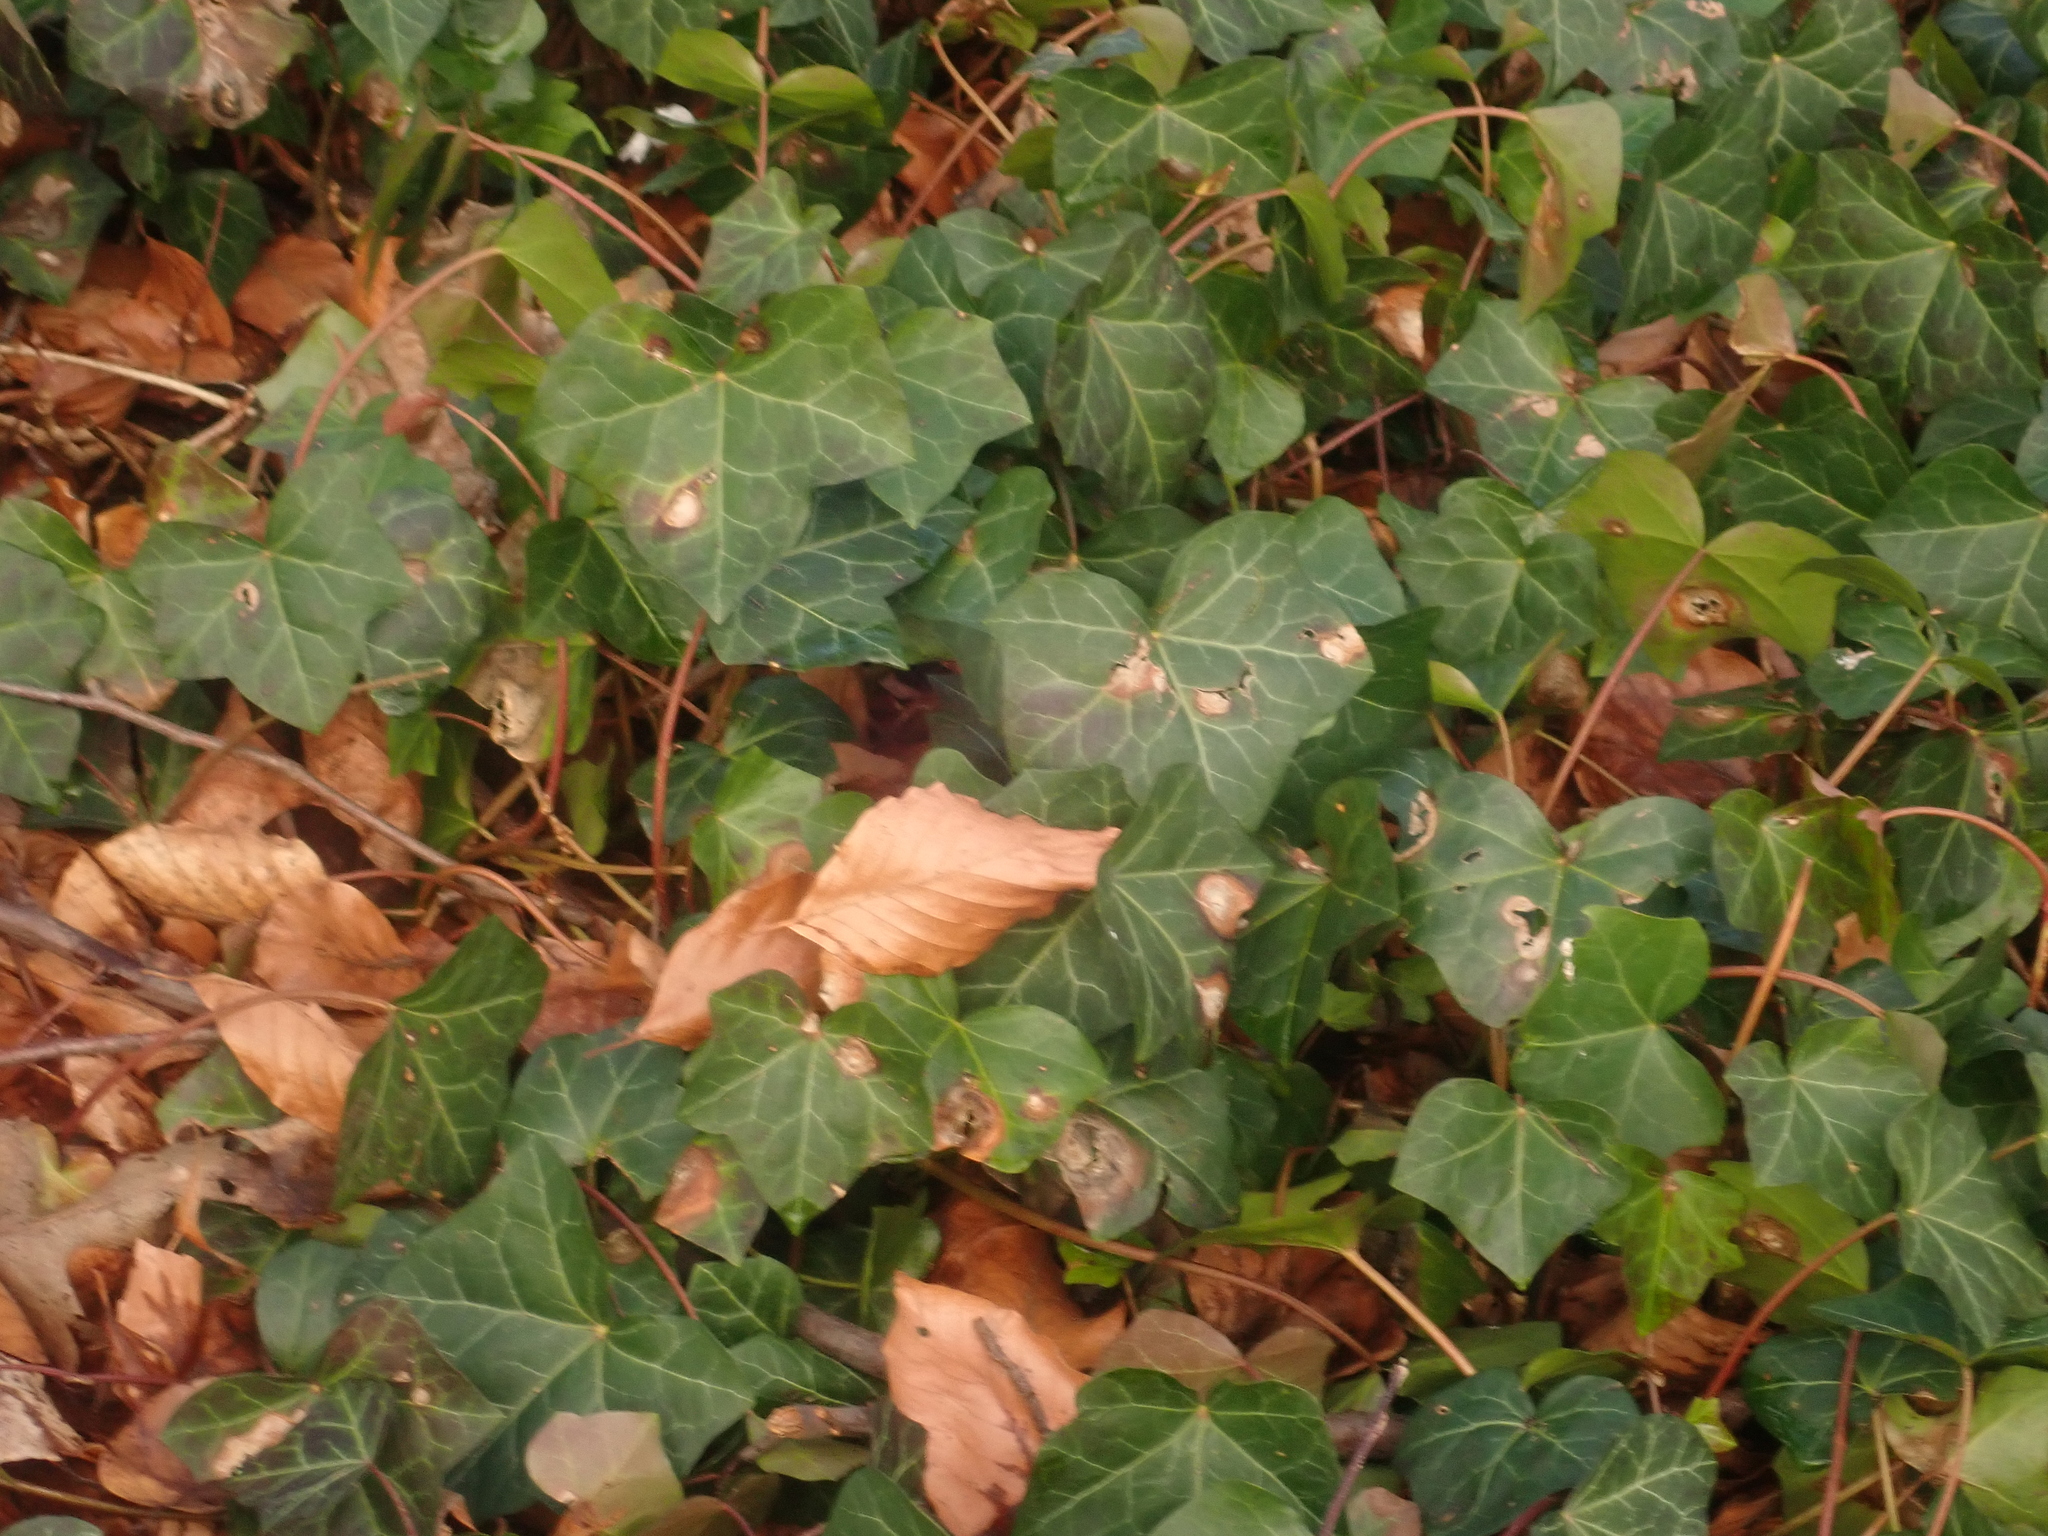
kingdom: Plantae
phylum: Tracheophyta
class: Magnoliopsida
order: Apiales
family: Araliaceae
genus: Hedera
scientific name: Hedera helix
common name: Ivy
